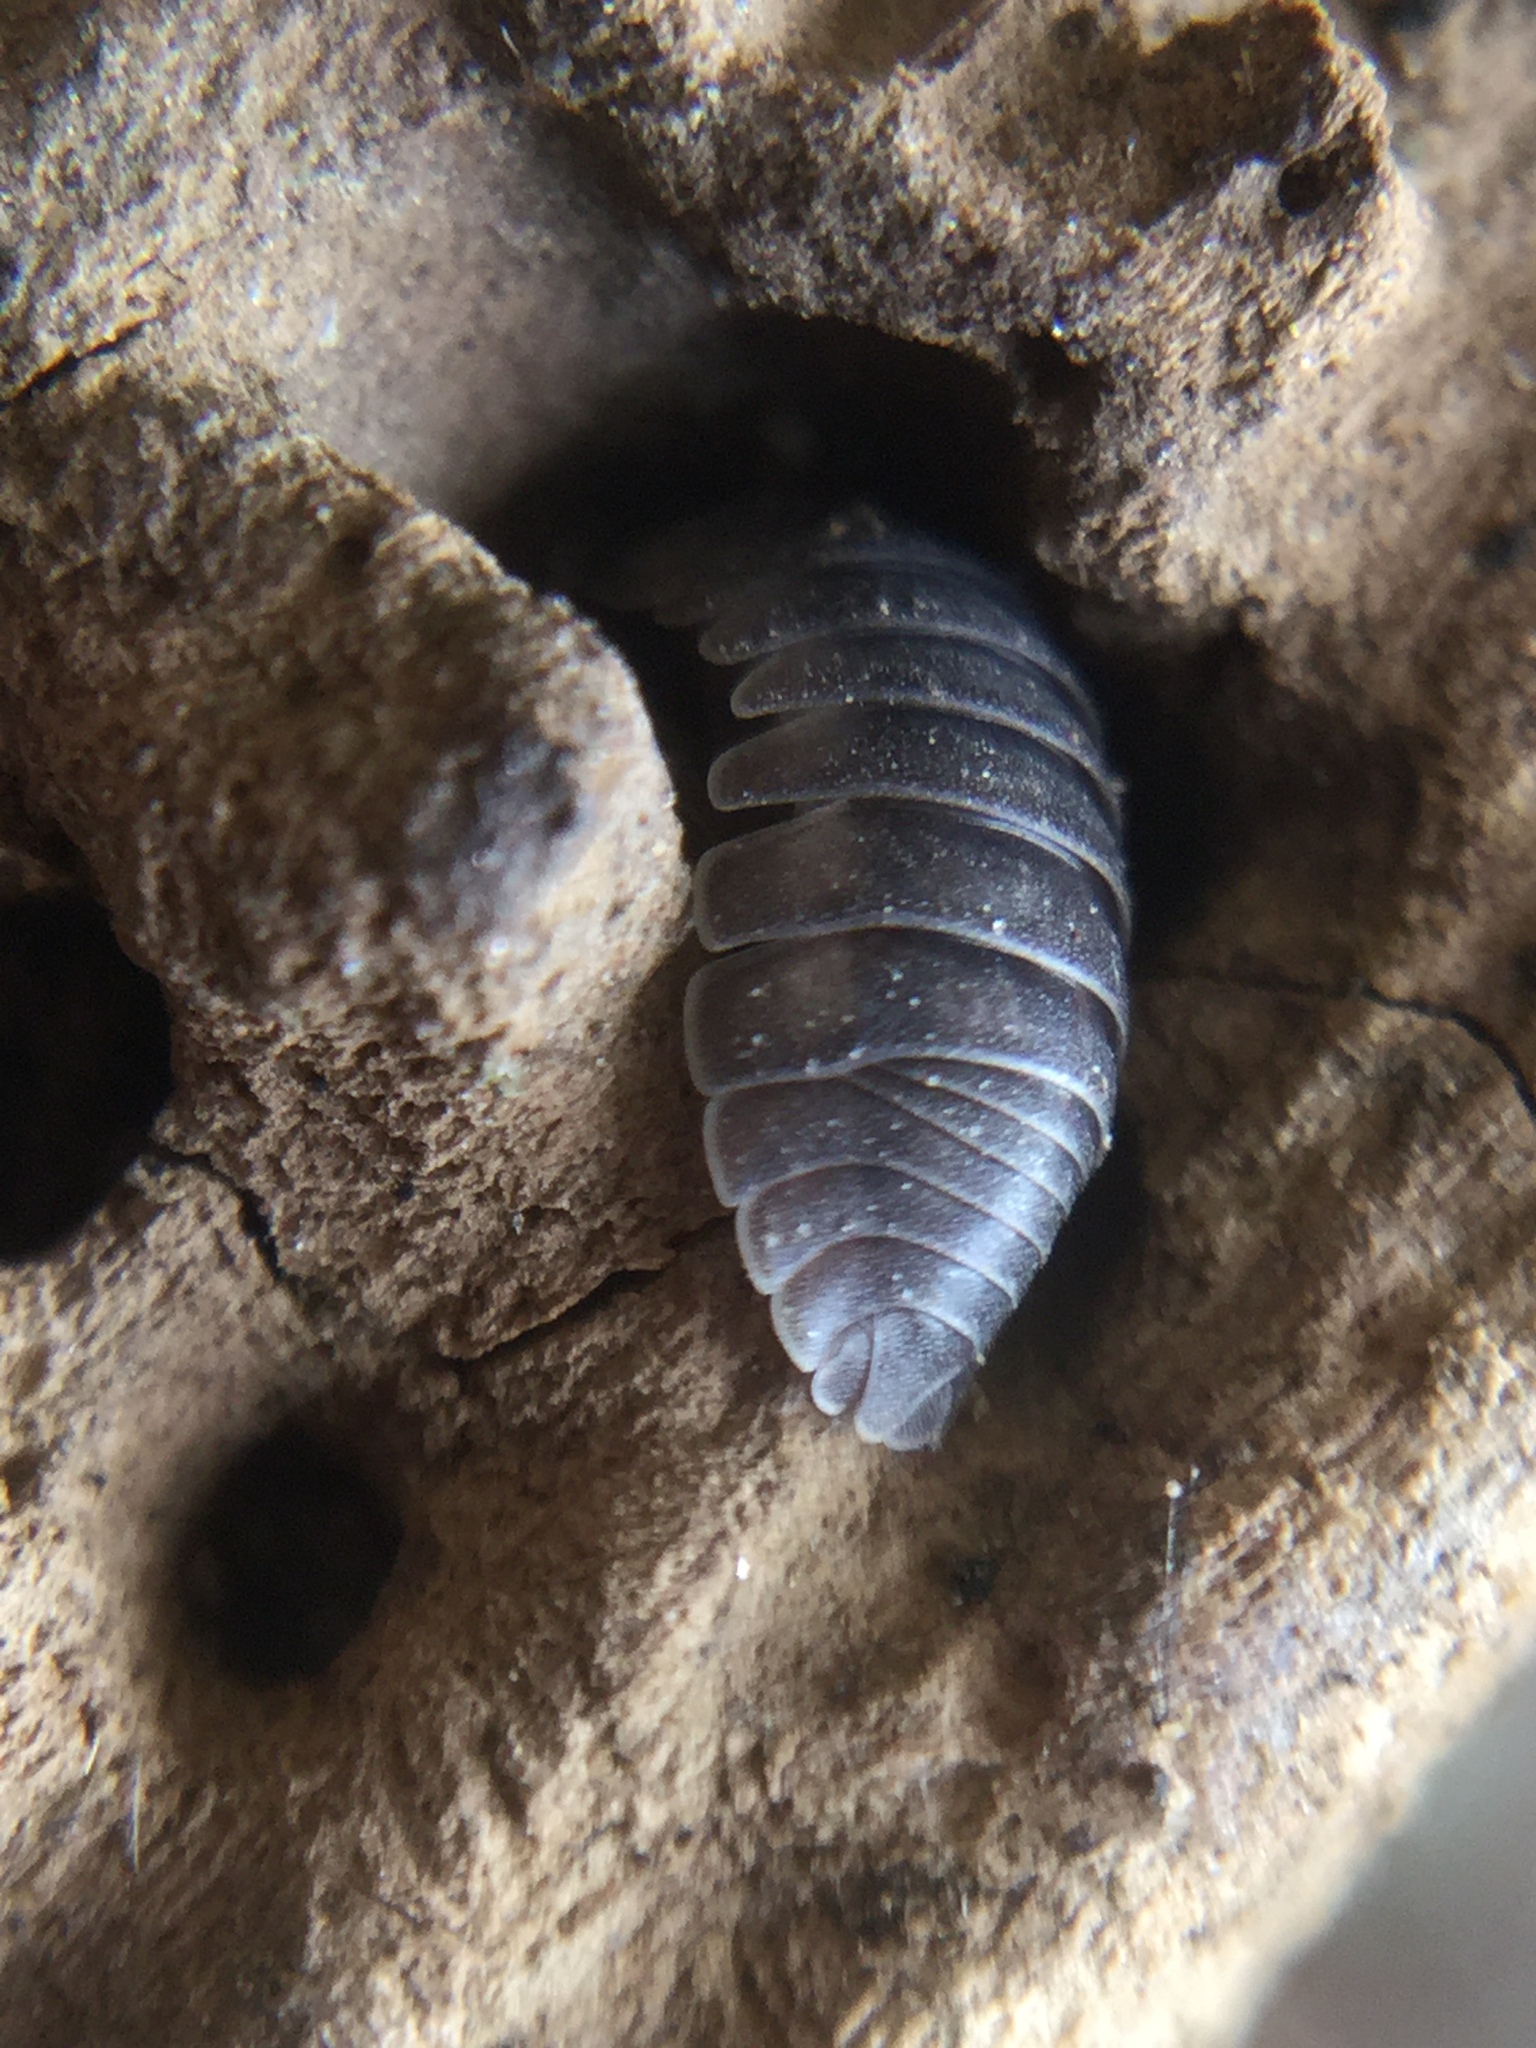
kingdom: Animalia
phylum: Arthropoda
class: Malacostraca
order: Isopoda
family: Armadillidiidae
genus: Armadillidium
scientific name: Armadillidium vulgare
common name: Common pill woodlouse
